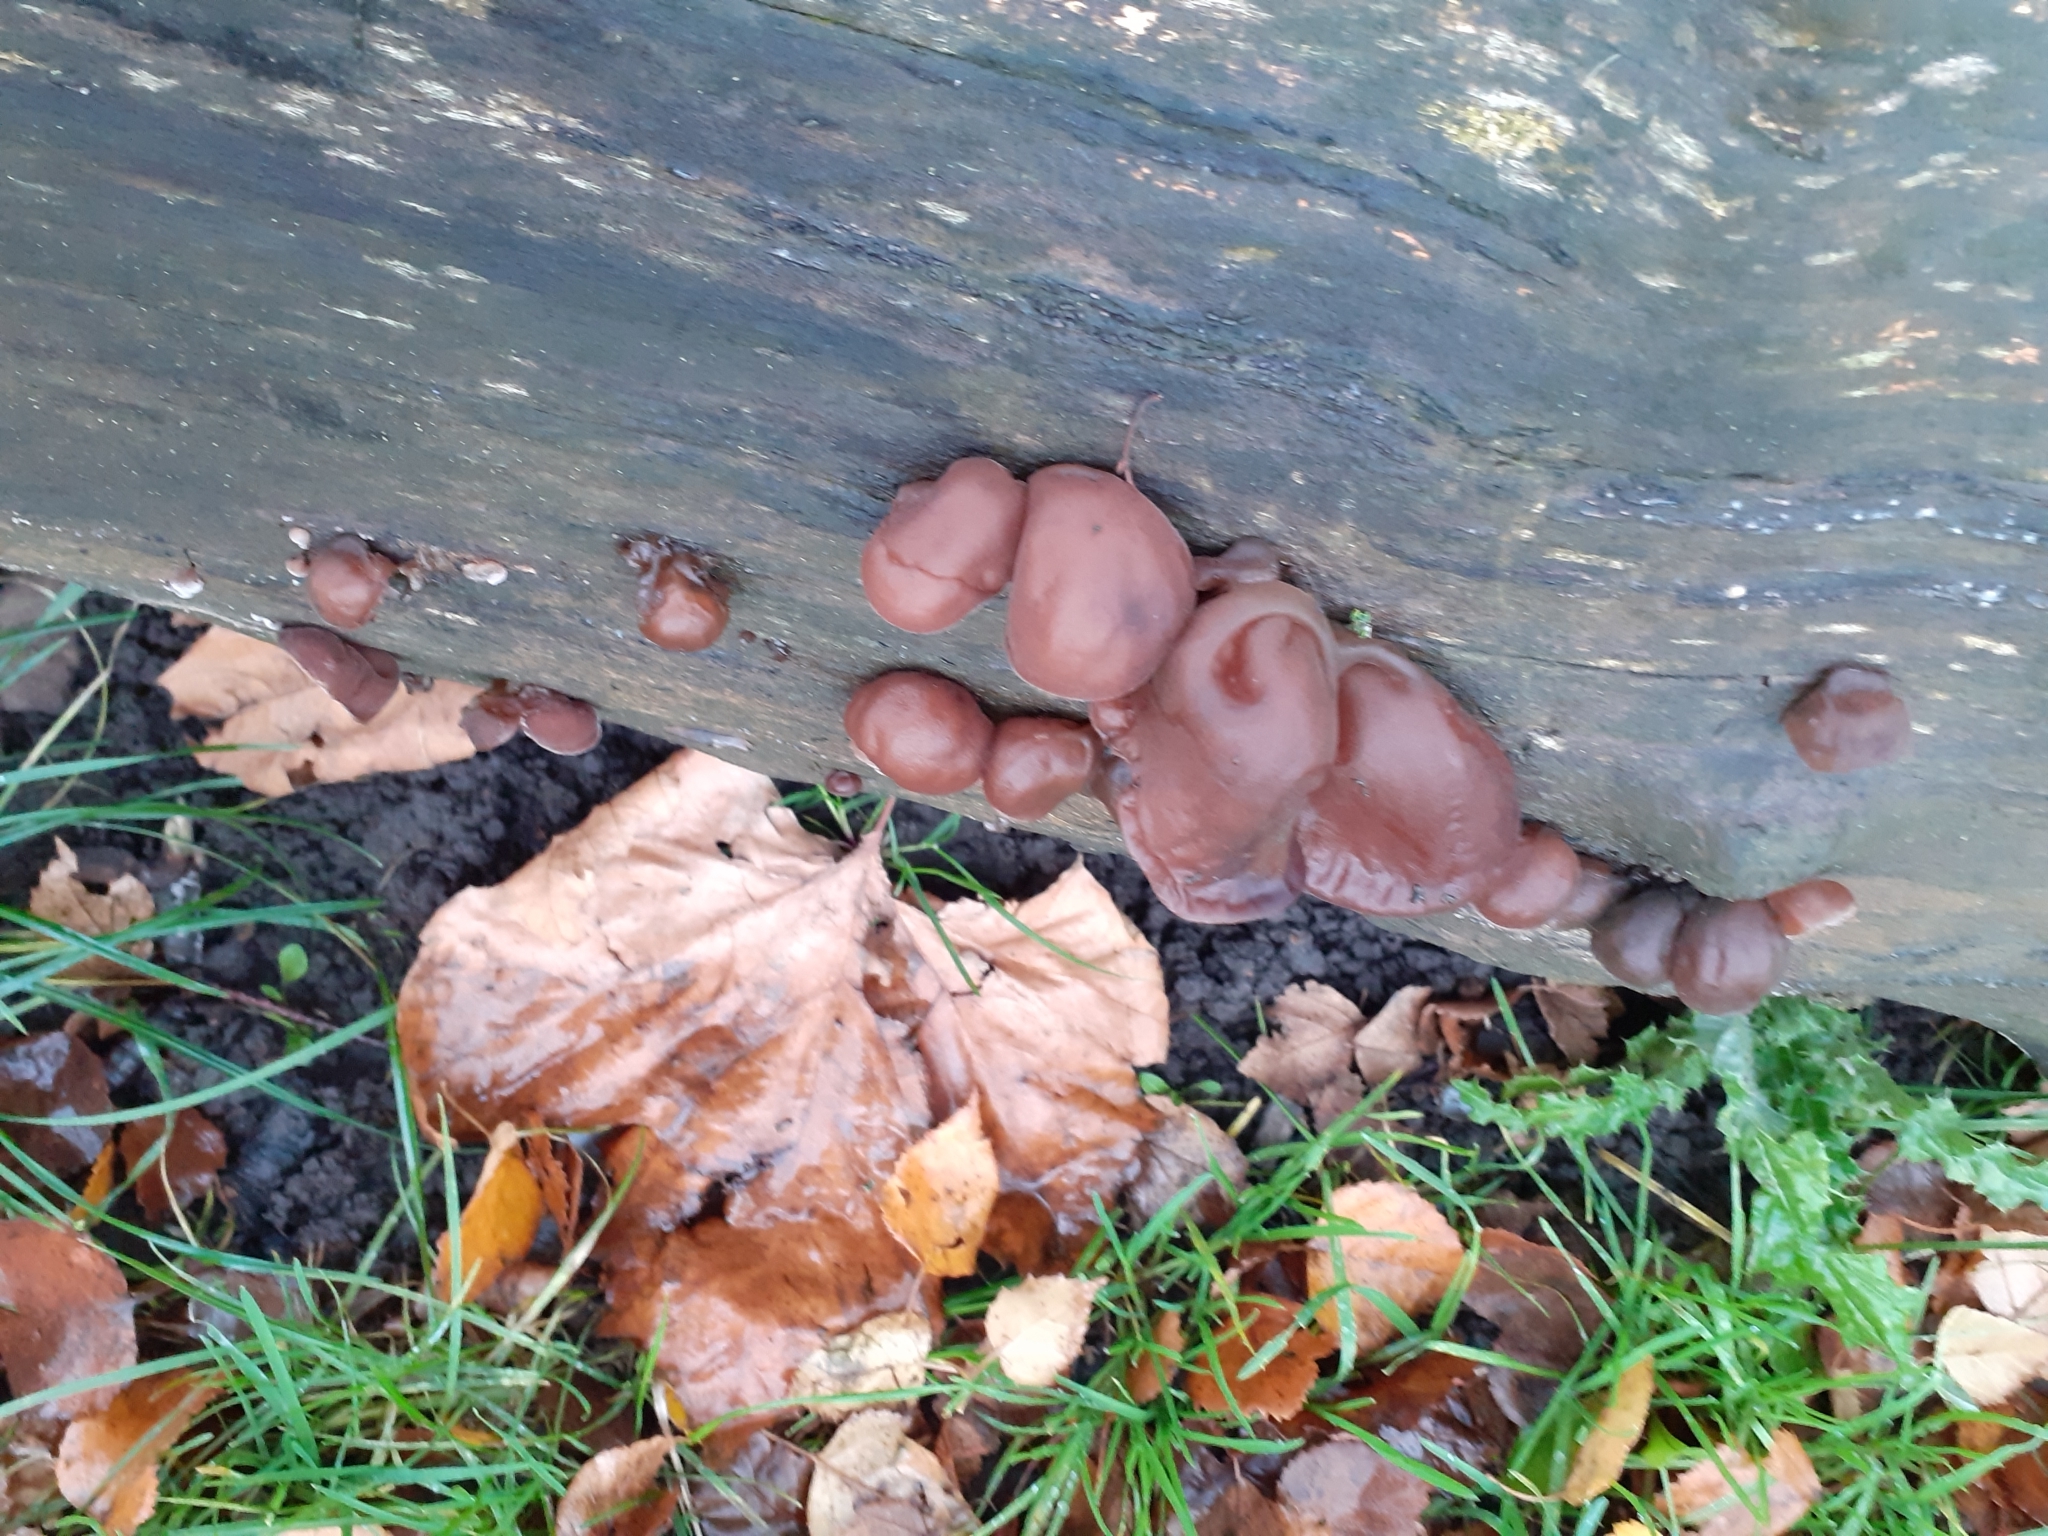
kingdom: Fungi
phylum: Basidiomycota
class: Agaricomycetes
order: Auriculariales
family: Auriculariaceae
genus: Auricularia
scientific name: Auricularia auricula-judae
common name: Jelly ear
